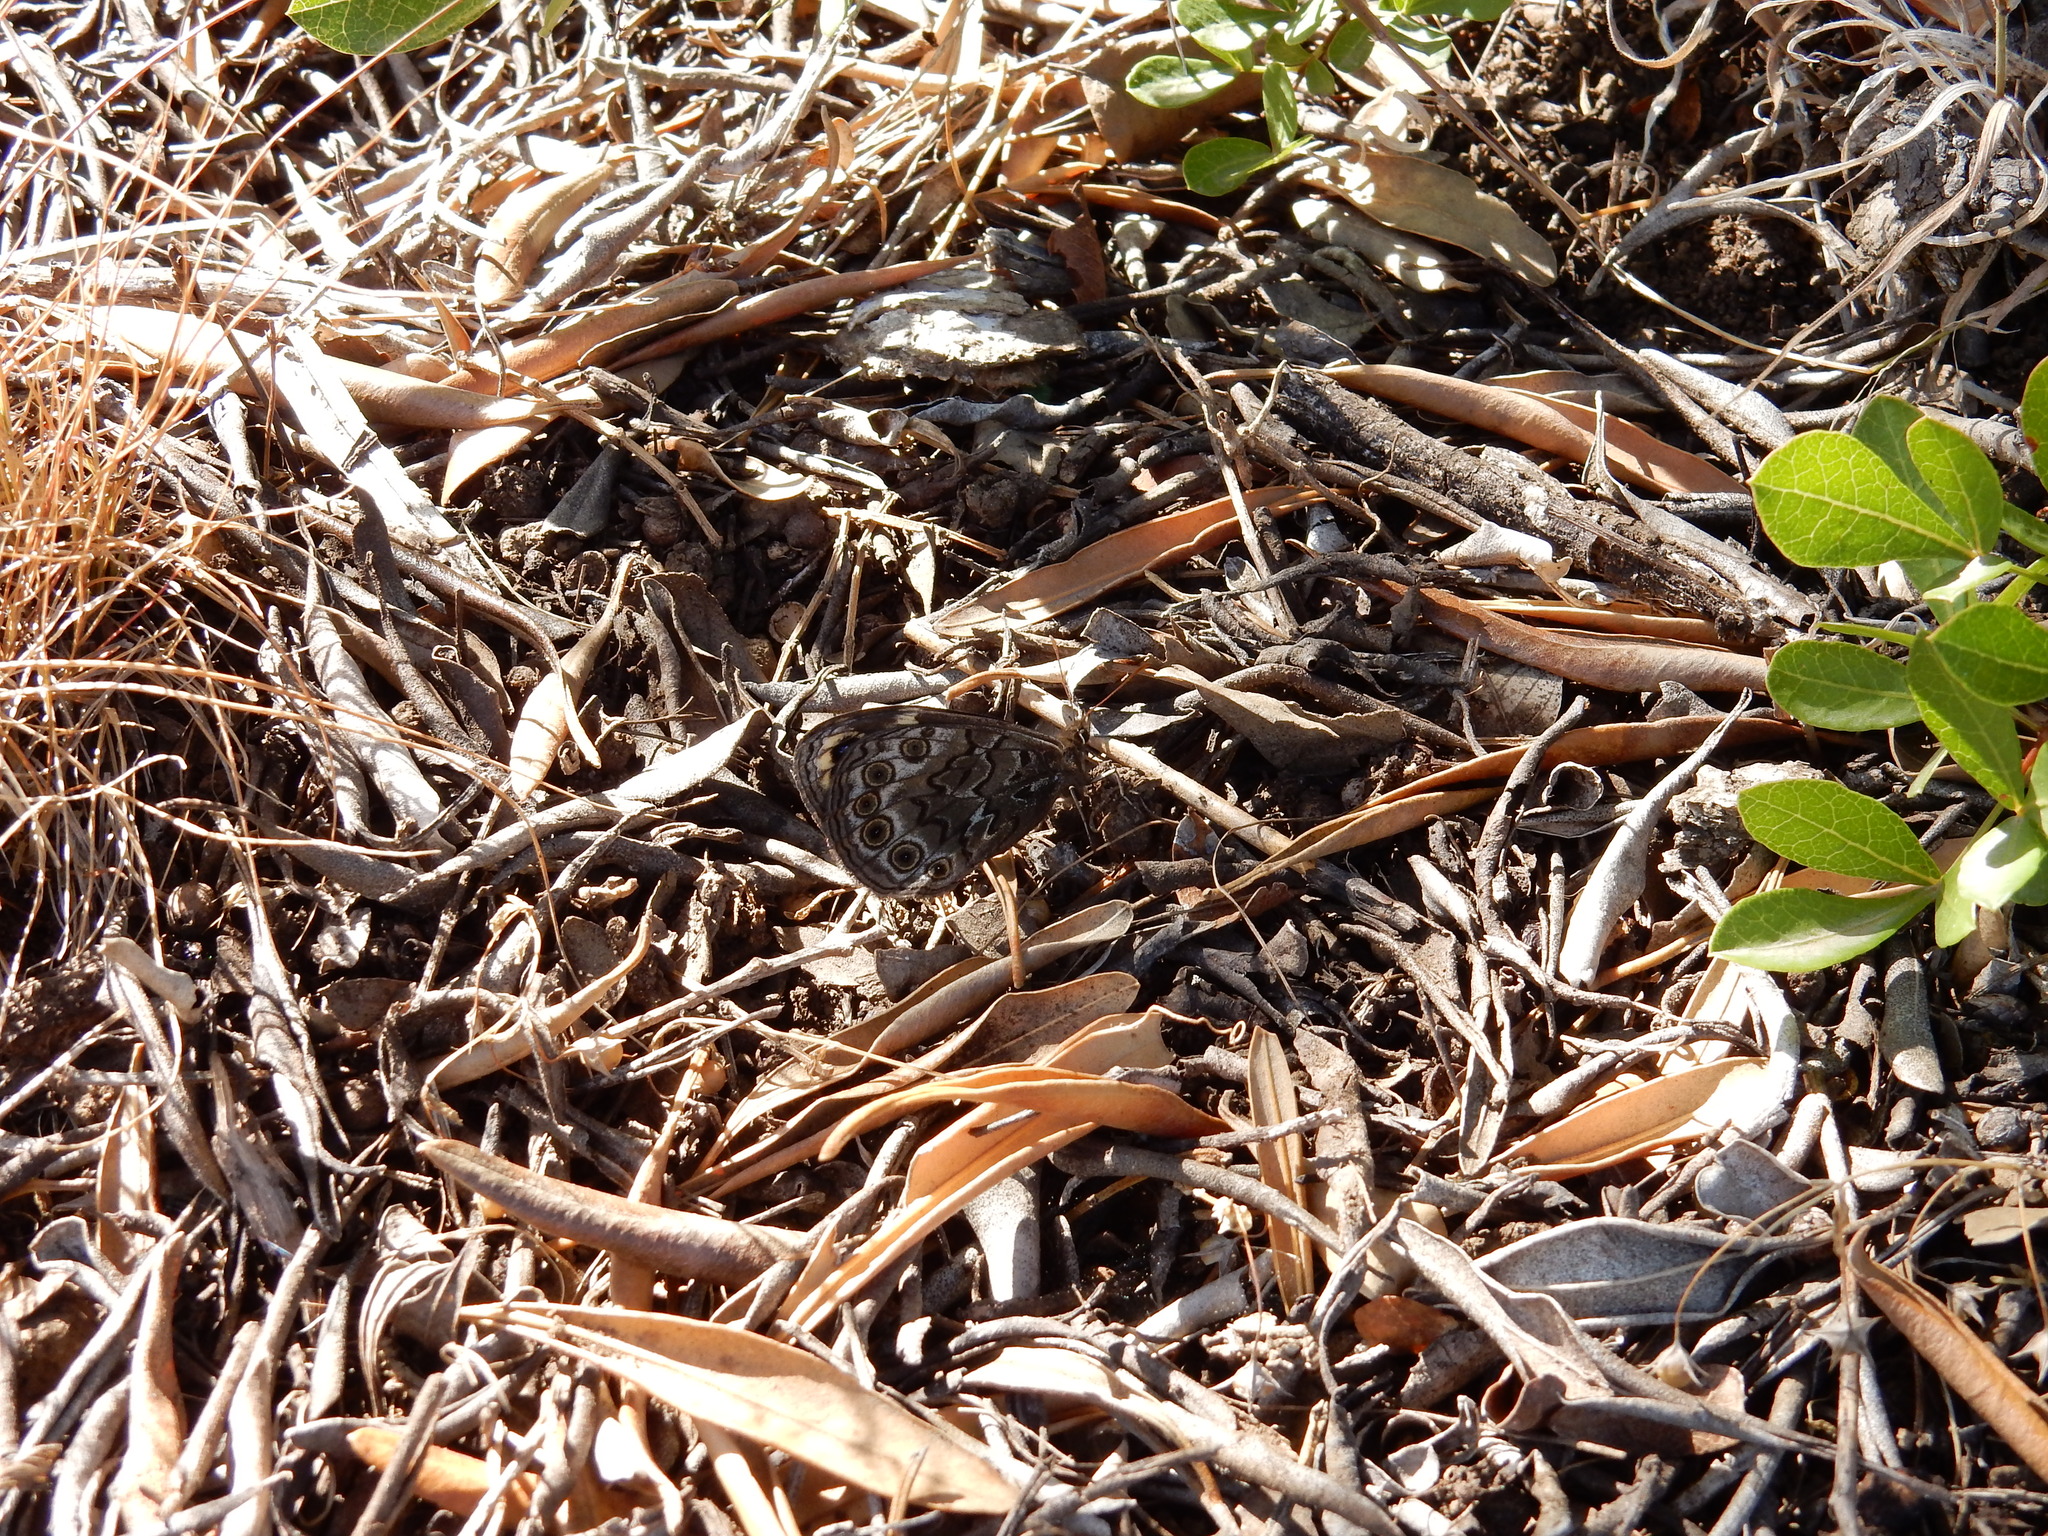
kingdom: Animalia
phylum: Arthropoda
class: Insecta
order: Lepidoptera
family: Nymphalidae
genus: Dira
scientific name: Dira clytus
